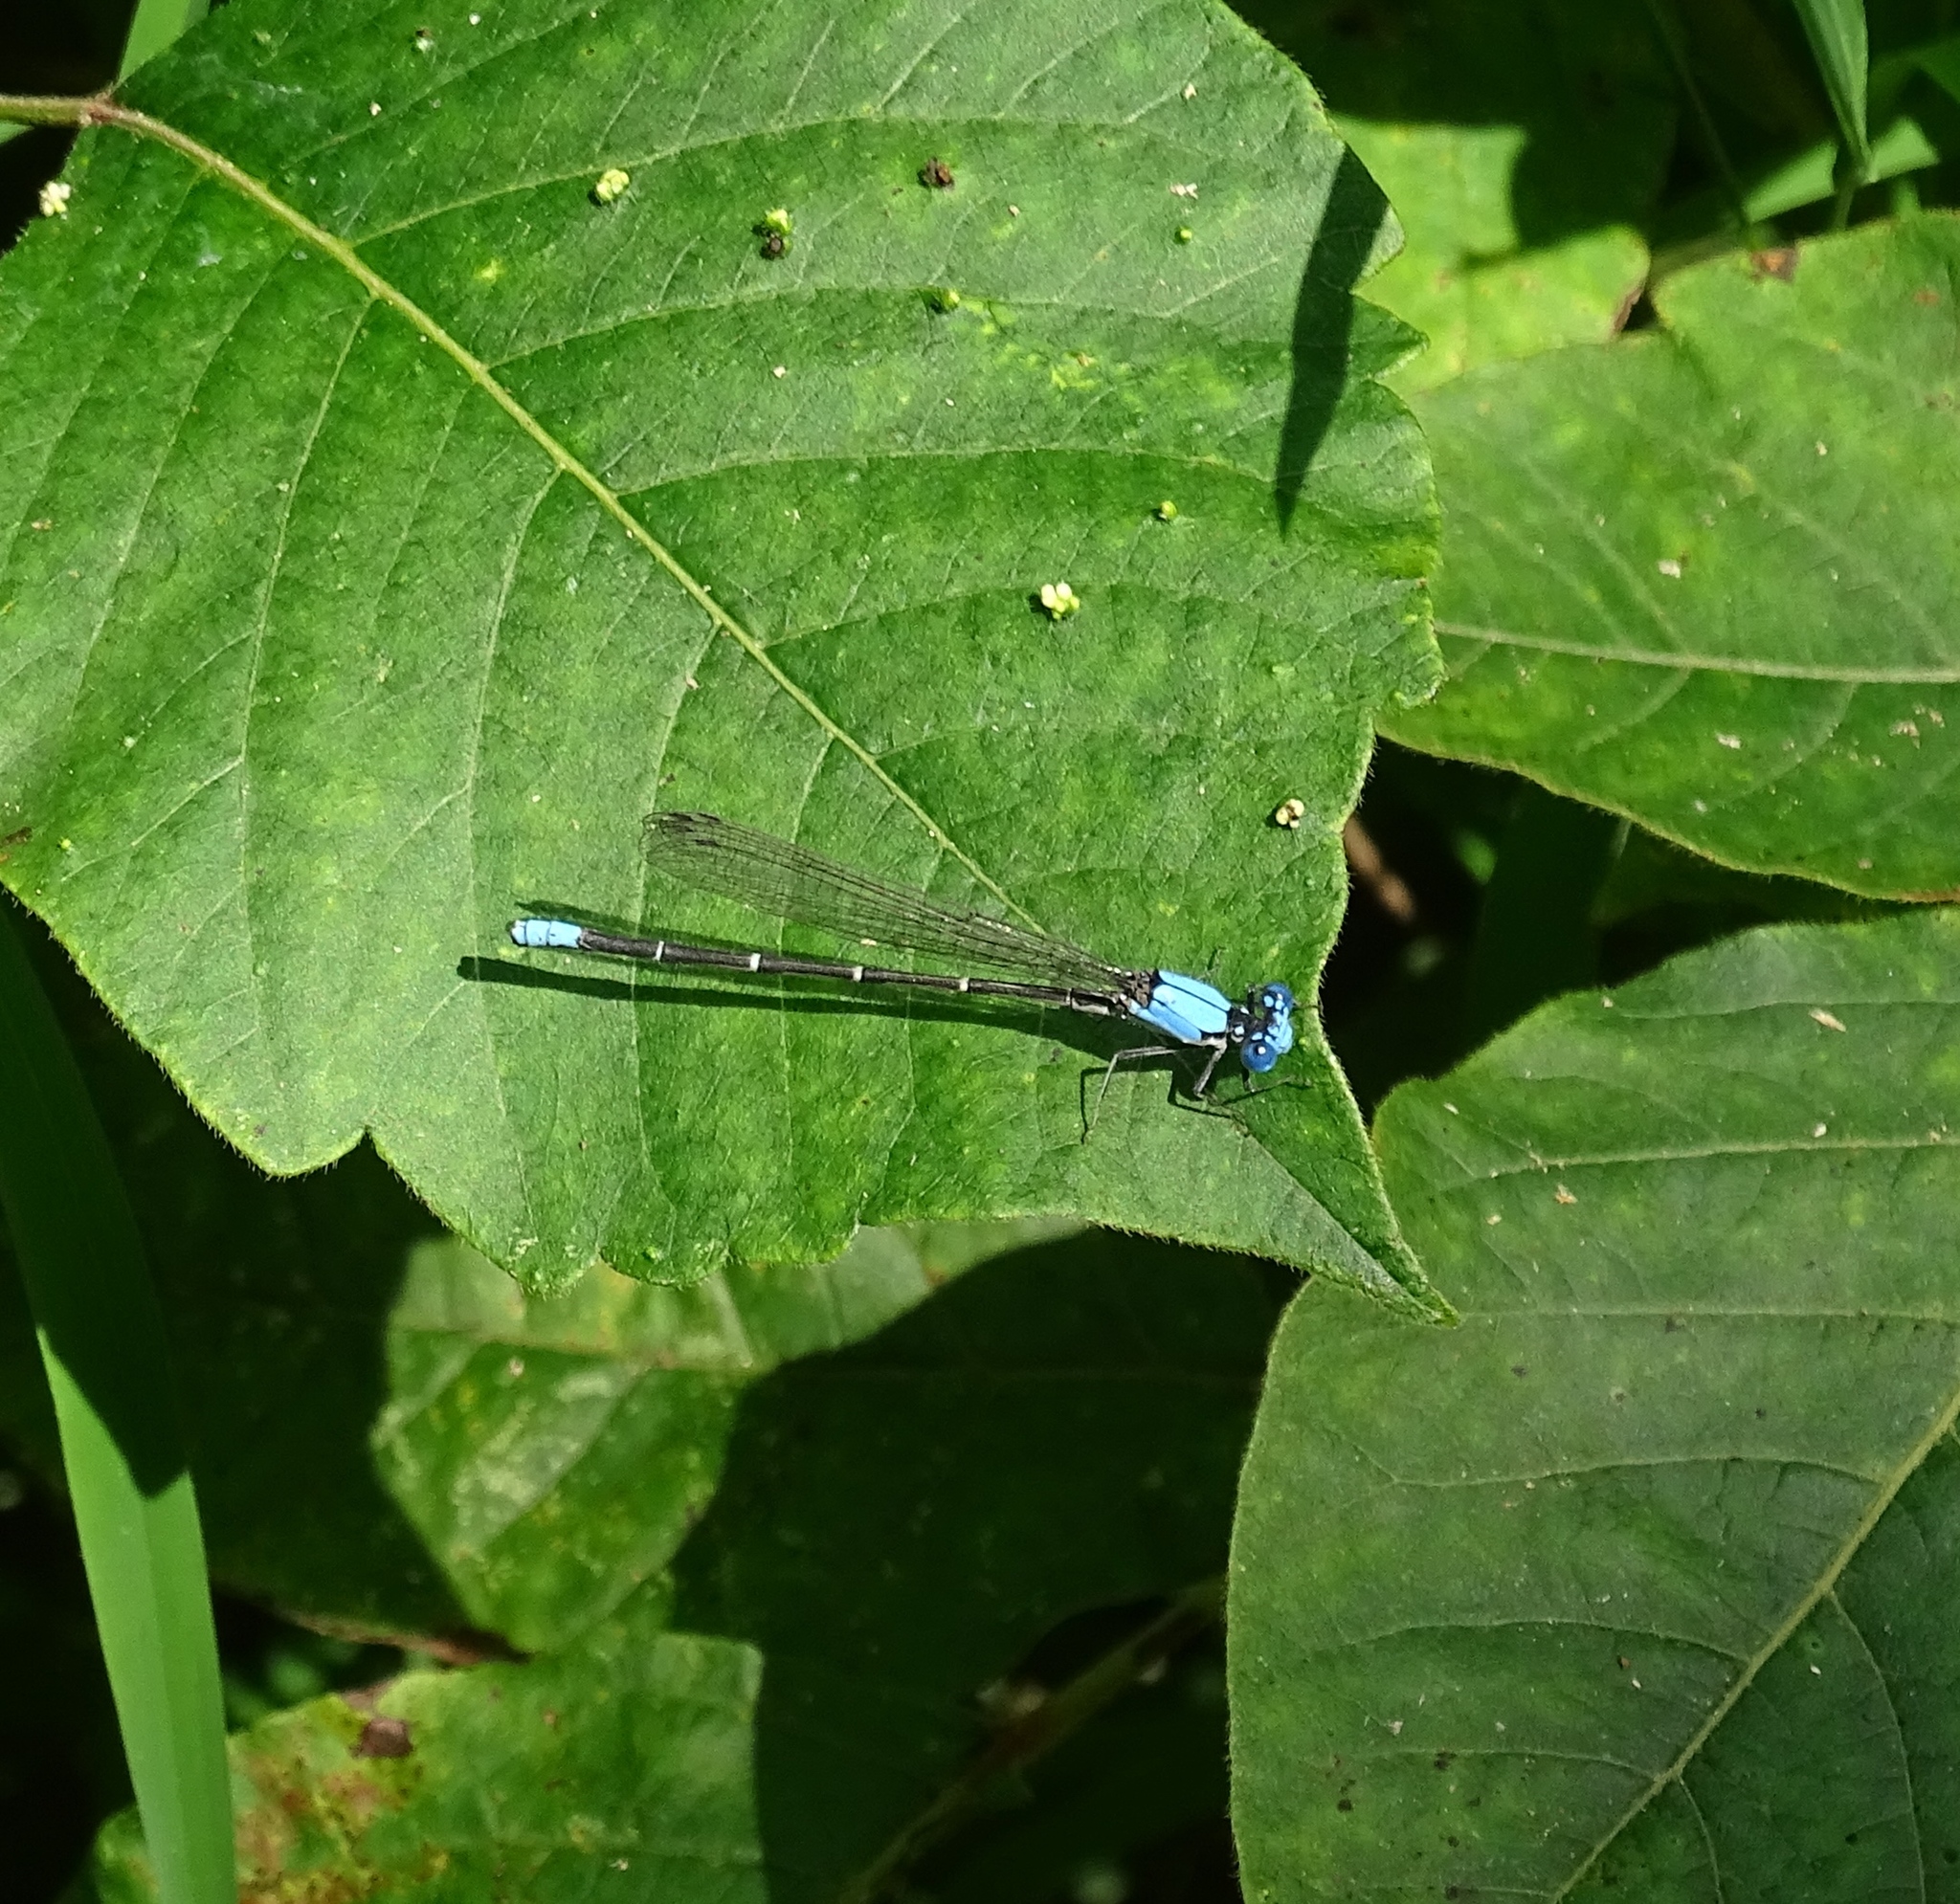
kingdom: Animalia
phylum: Arthropoda
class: Insecta
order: Odonata
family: Coenagrionidae
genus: Argia
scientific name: Argia apicalis
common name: Blue-fronted dancer
